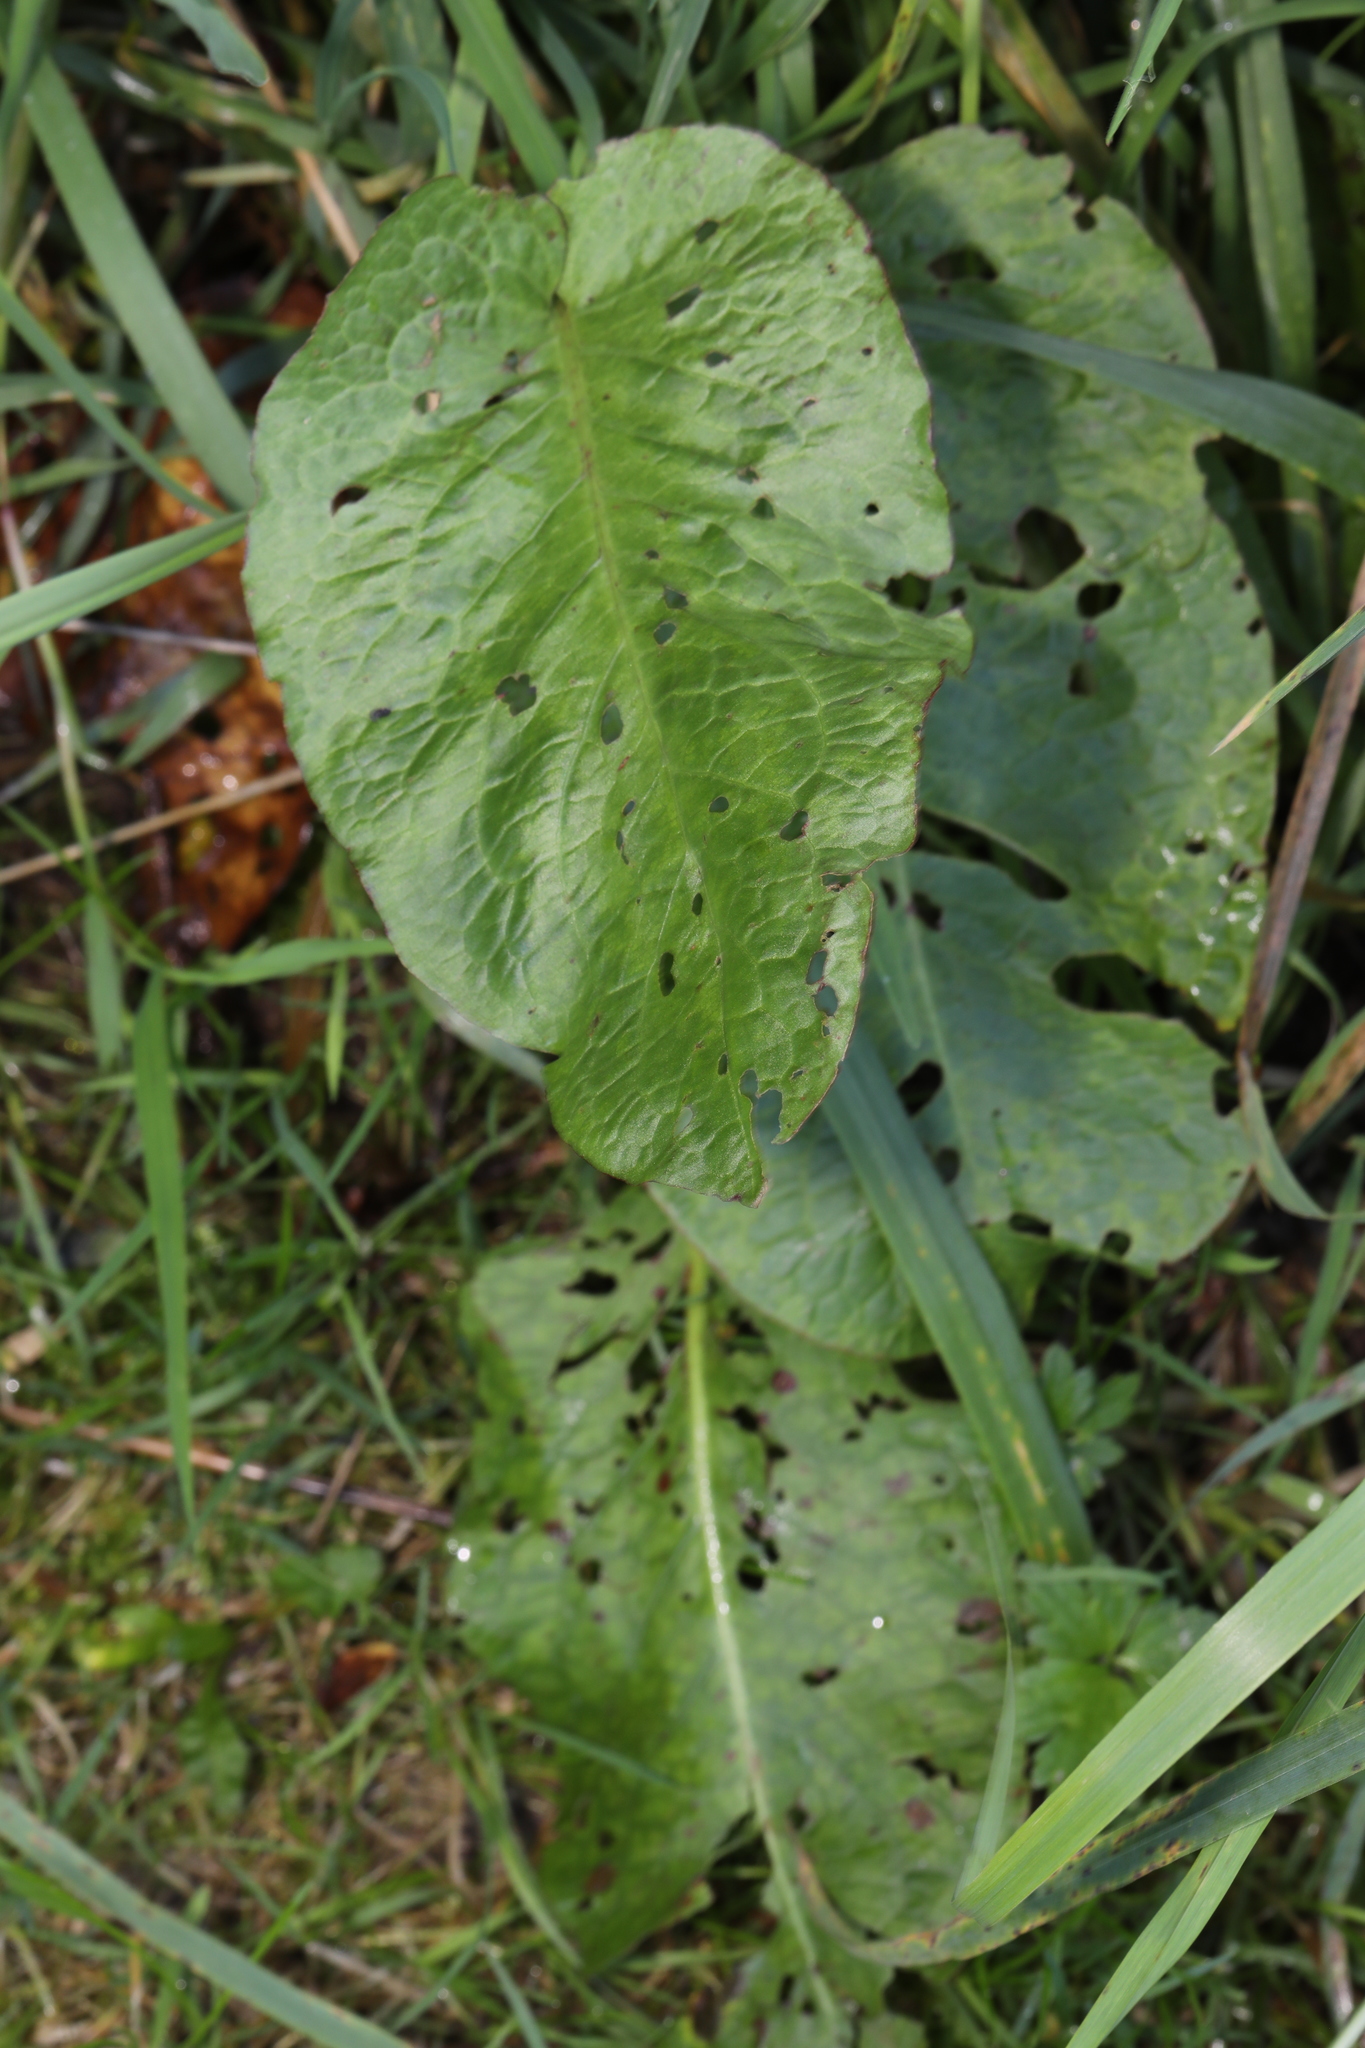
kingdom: Plantae
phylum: Tracheophyta
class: Magnoliopsida
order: Caryophyllales
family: Polygonaceae
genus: Rumex
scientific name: Rumex obtusifolius
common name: Bitter dock
